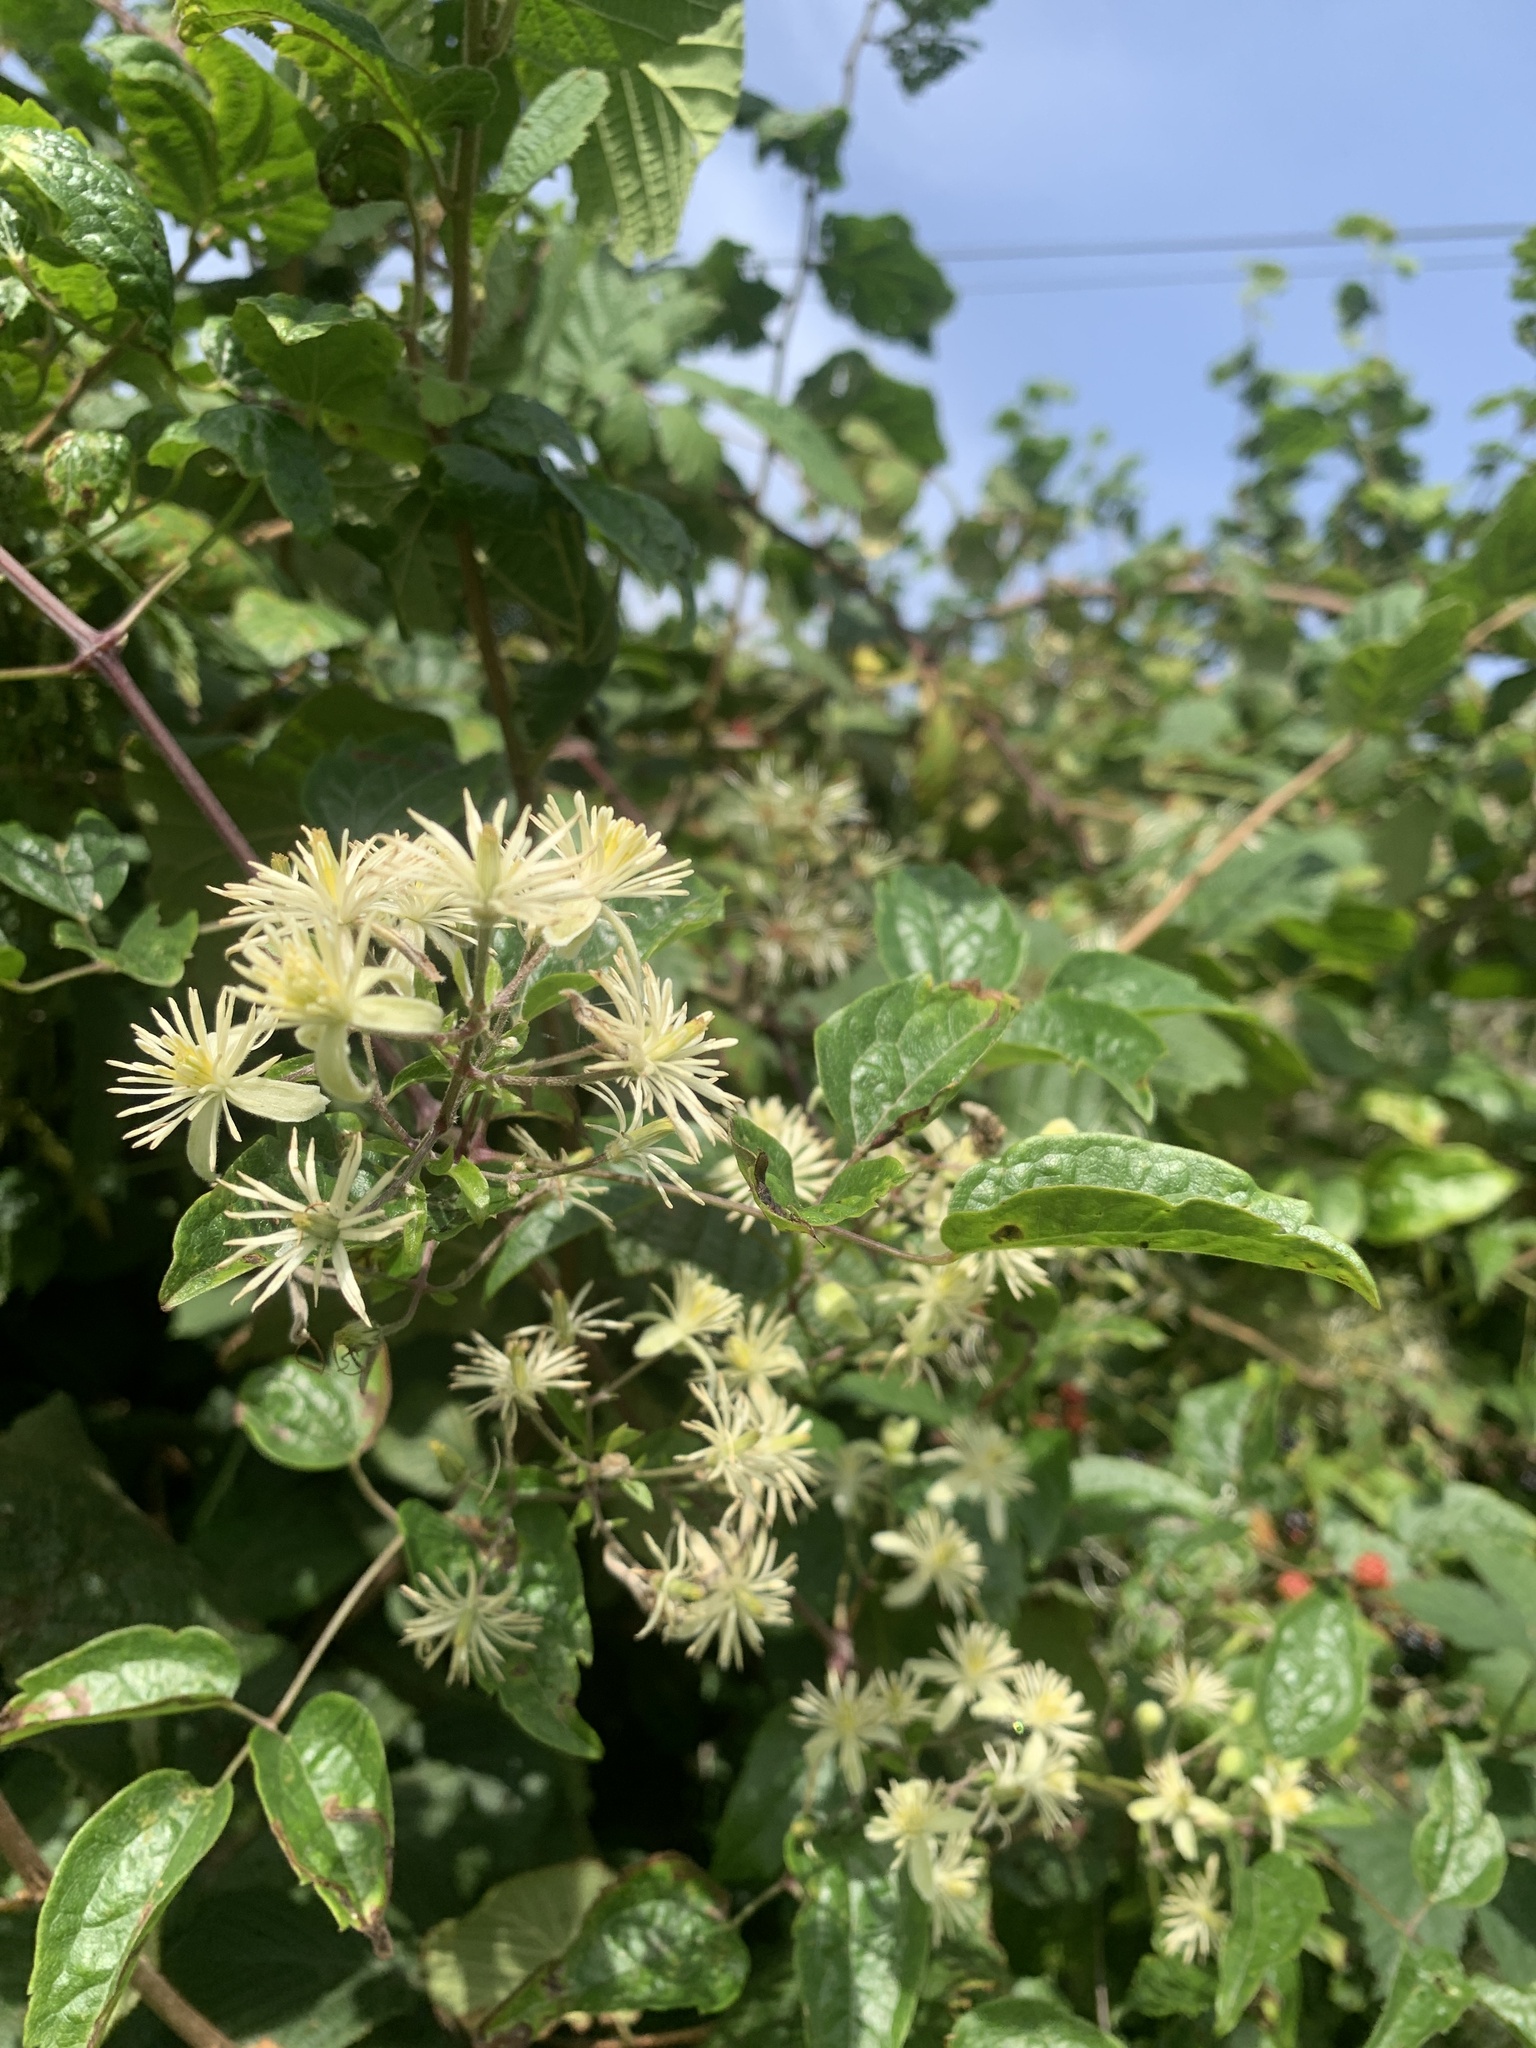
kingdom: Plantae
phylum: Tracheophyta
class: Magnoliopsida
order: Ranunculales
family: Ranunculaceae
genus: Clematis
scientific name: Clematis vitalba
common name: Evergreen clematis
